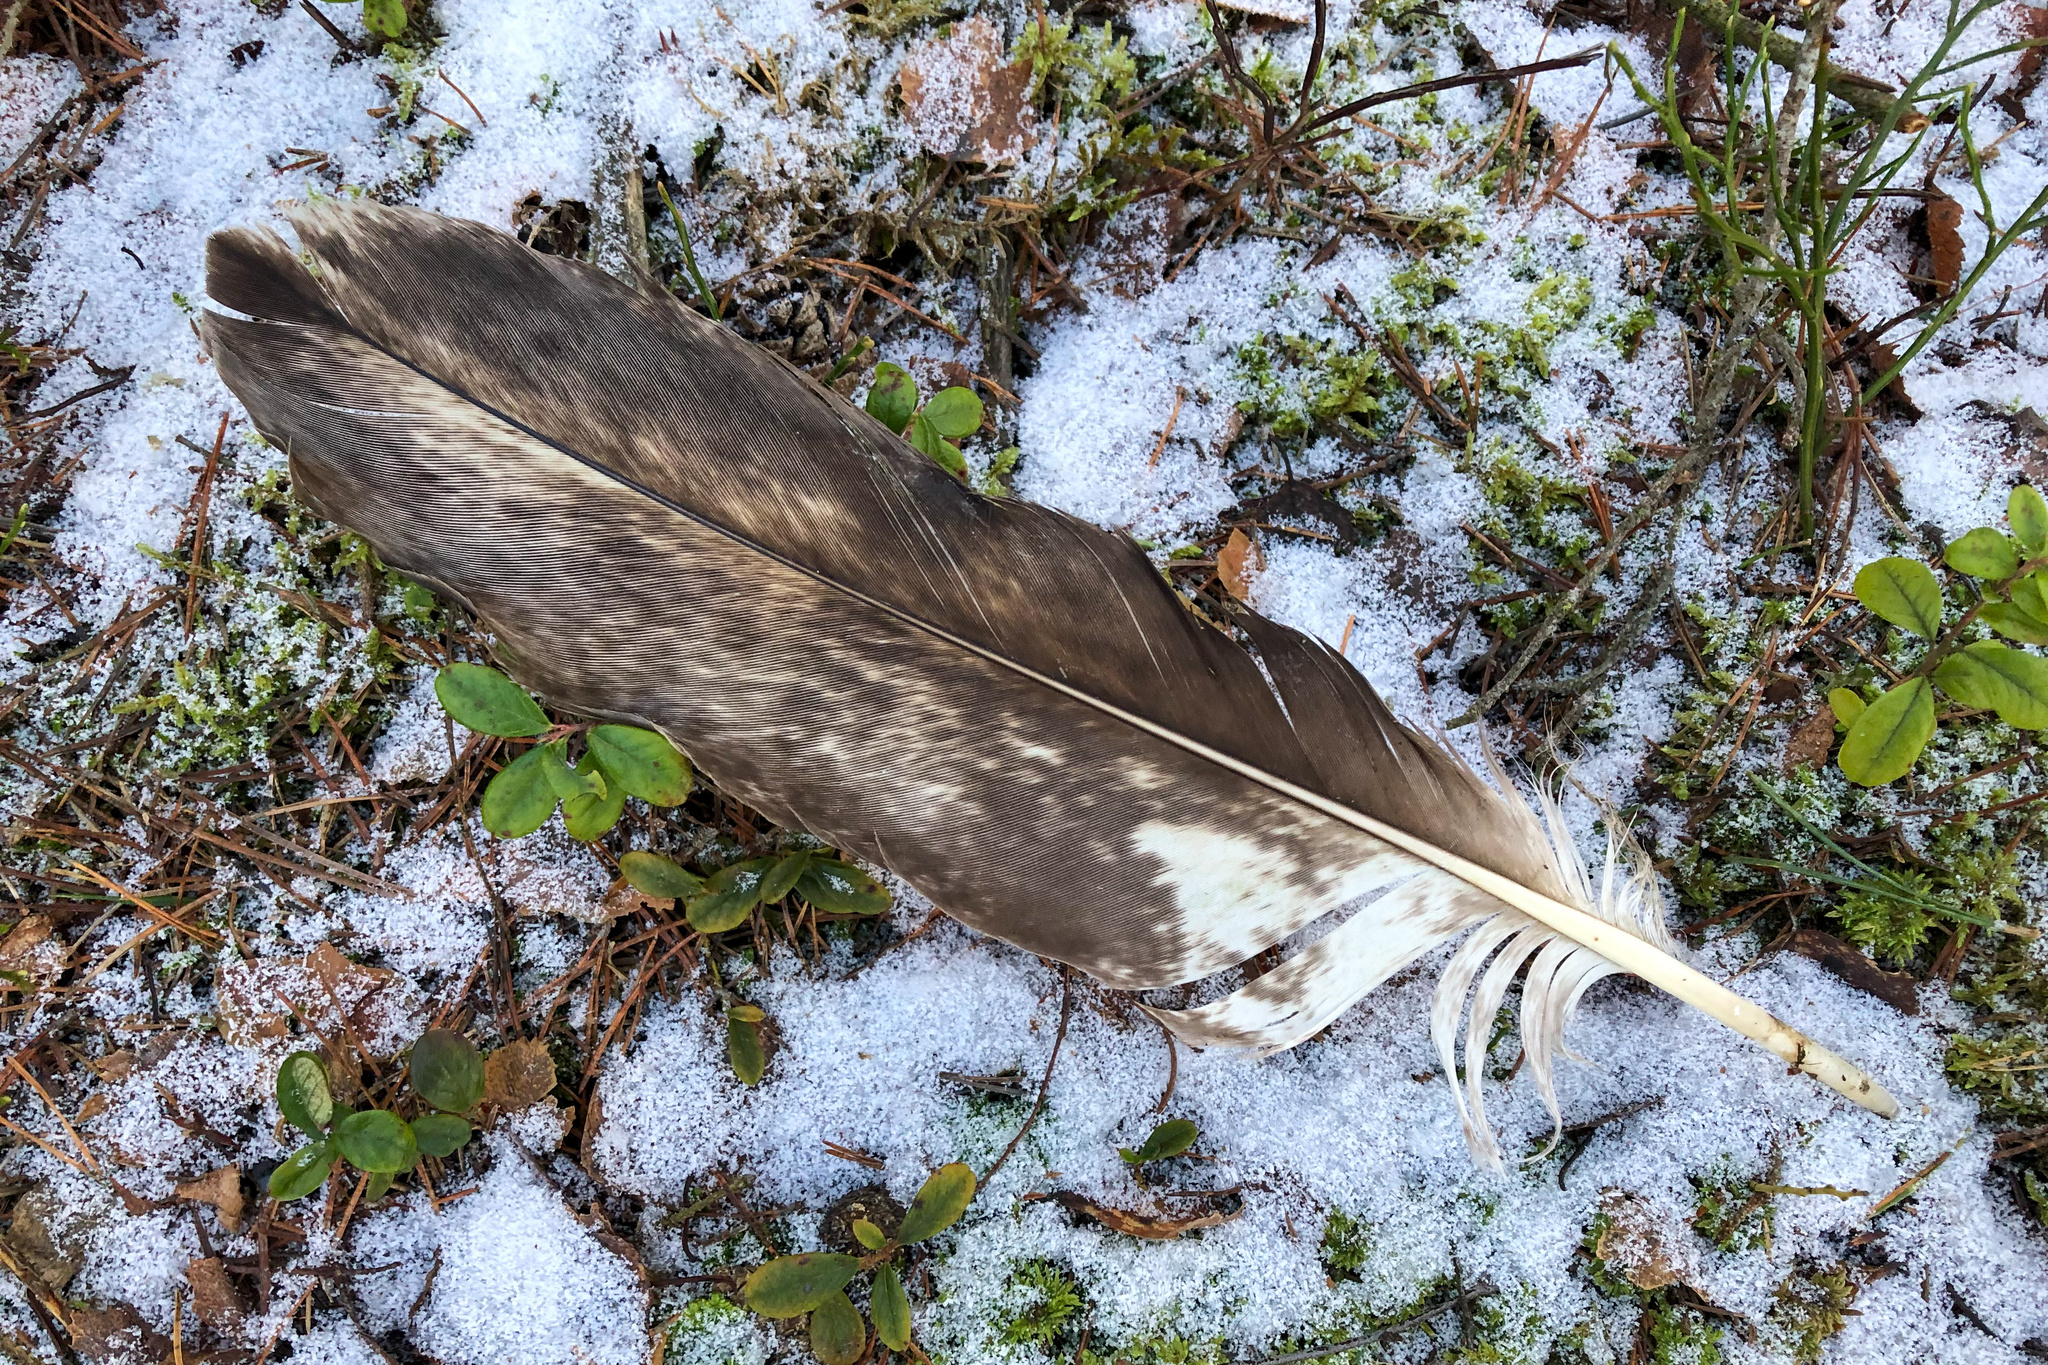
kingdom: Animalia
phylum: Chordata
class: Aves
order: Accipitriformes
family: Accipitridae
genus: Haliaeetus
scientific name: Haliaeetus albicilla
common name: White-tailed eagle
